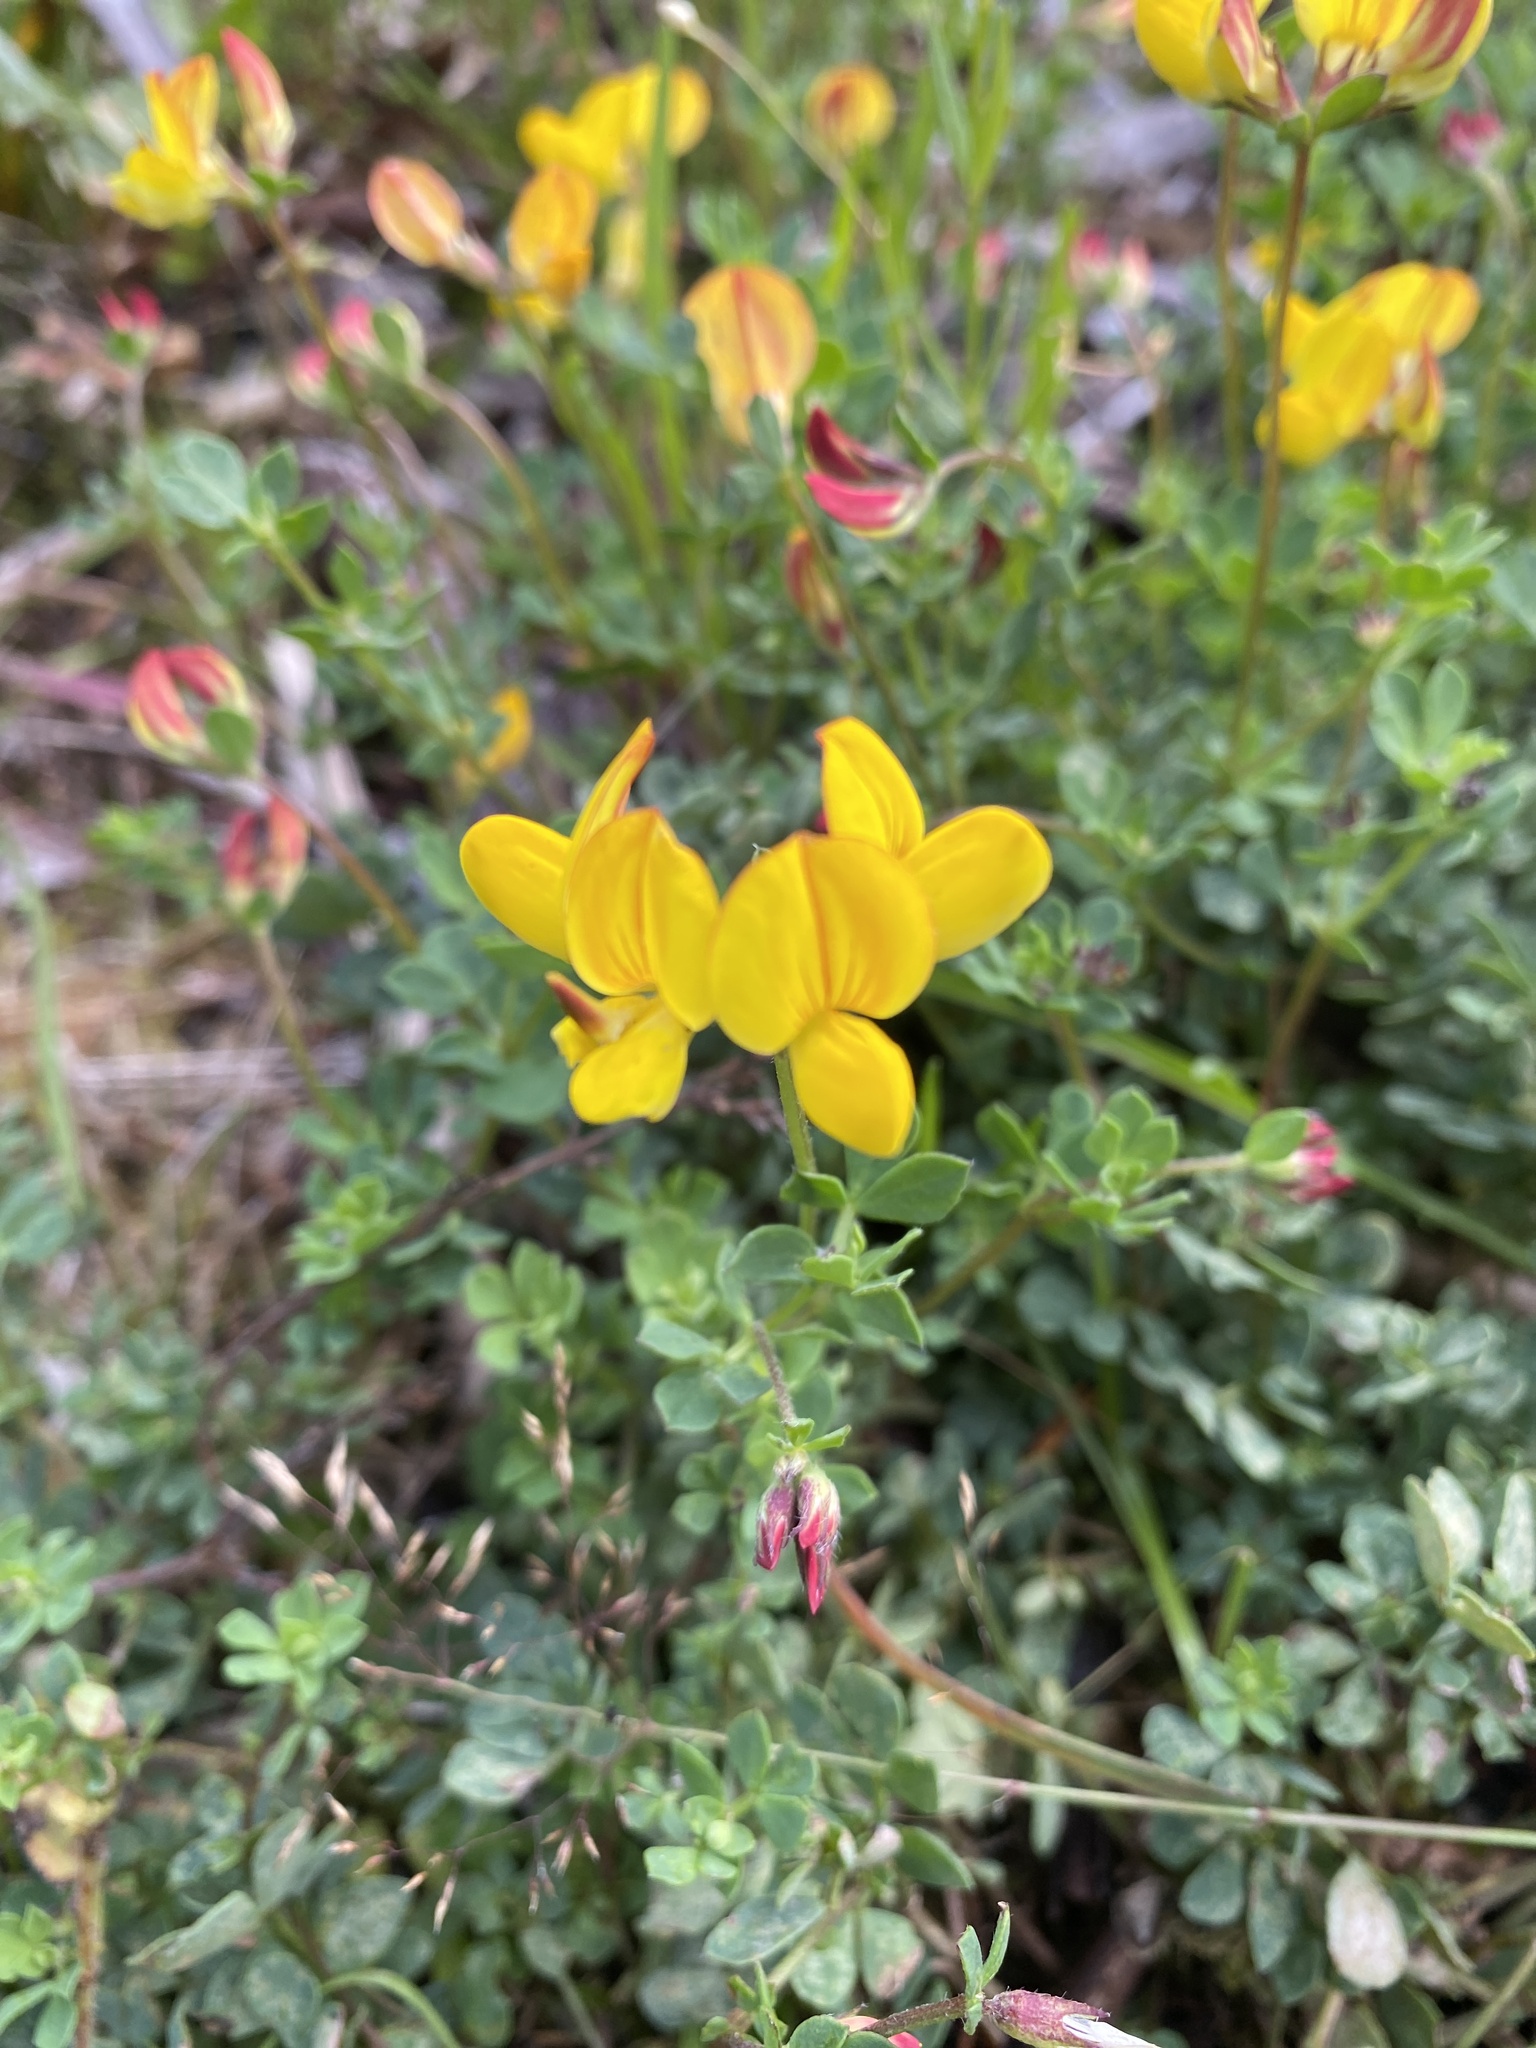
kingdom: Plantae
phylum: Tracheophyta
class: Magnoliopsida
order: Fabales
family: Fabaceae
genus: Lotus
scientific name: Lotus corniculatus
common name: Common bird's-foot-trefoil
